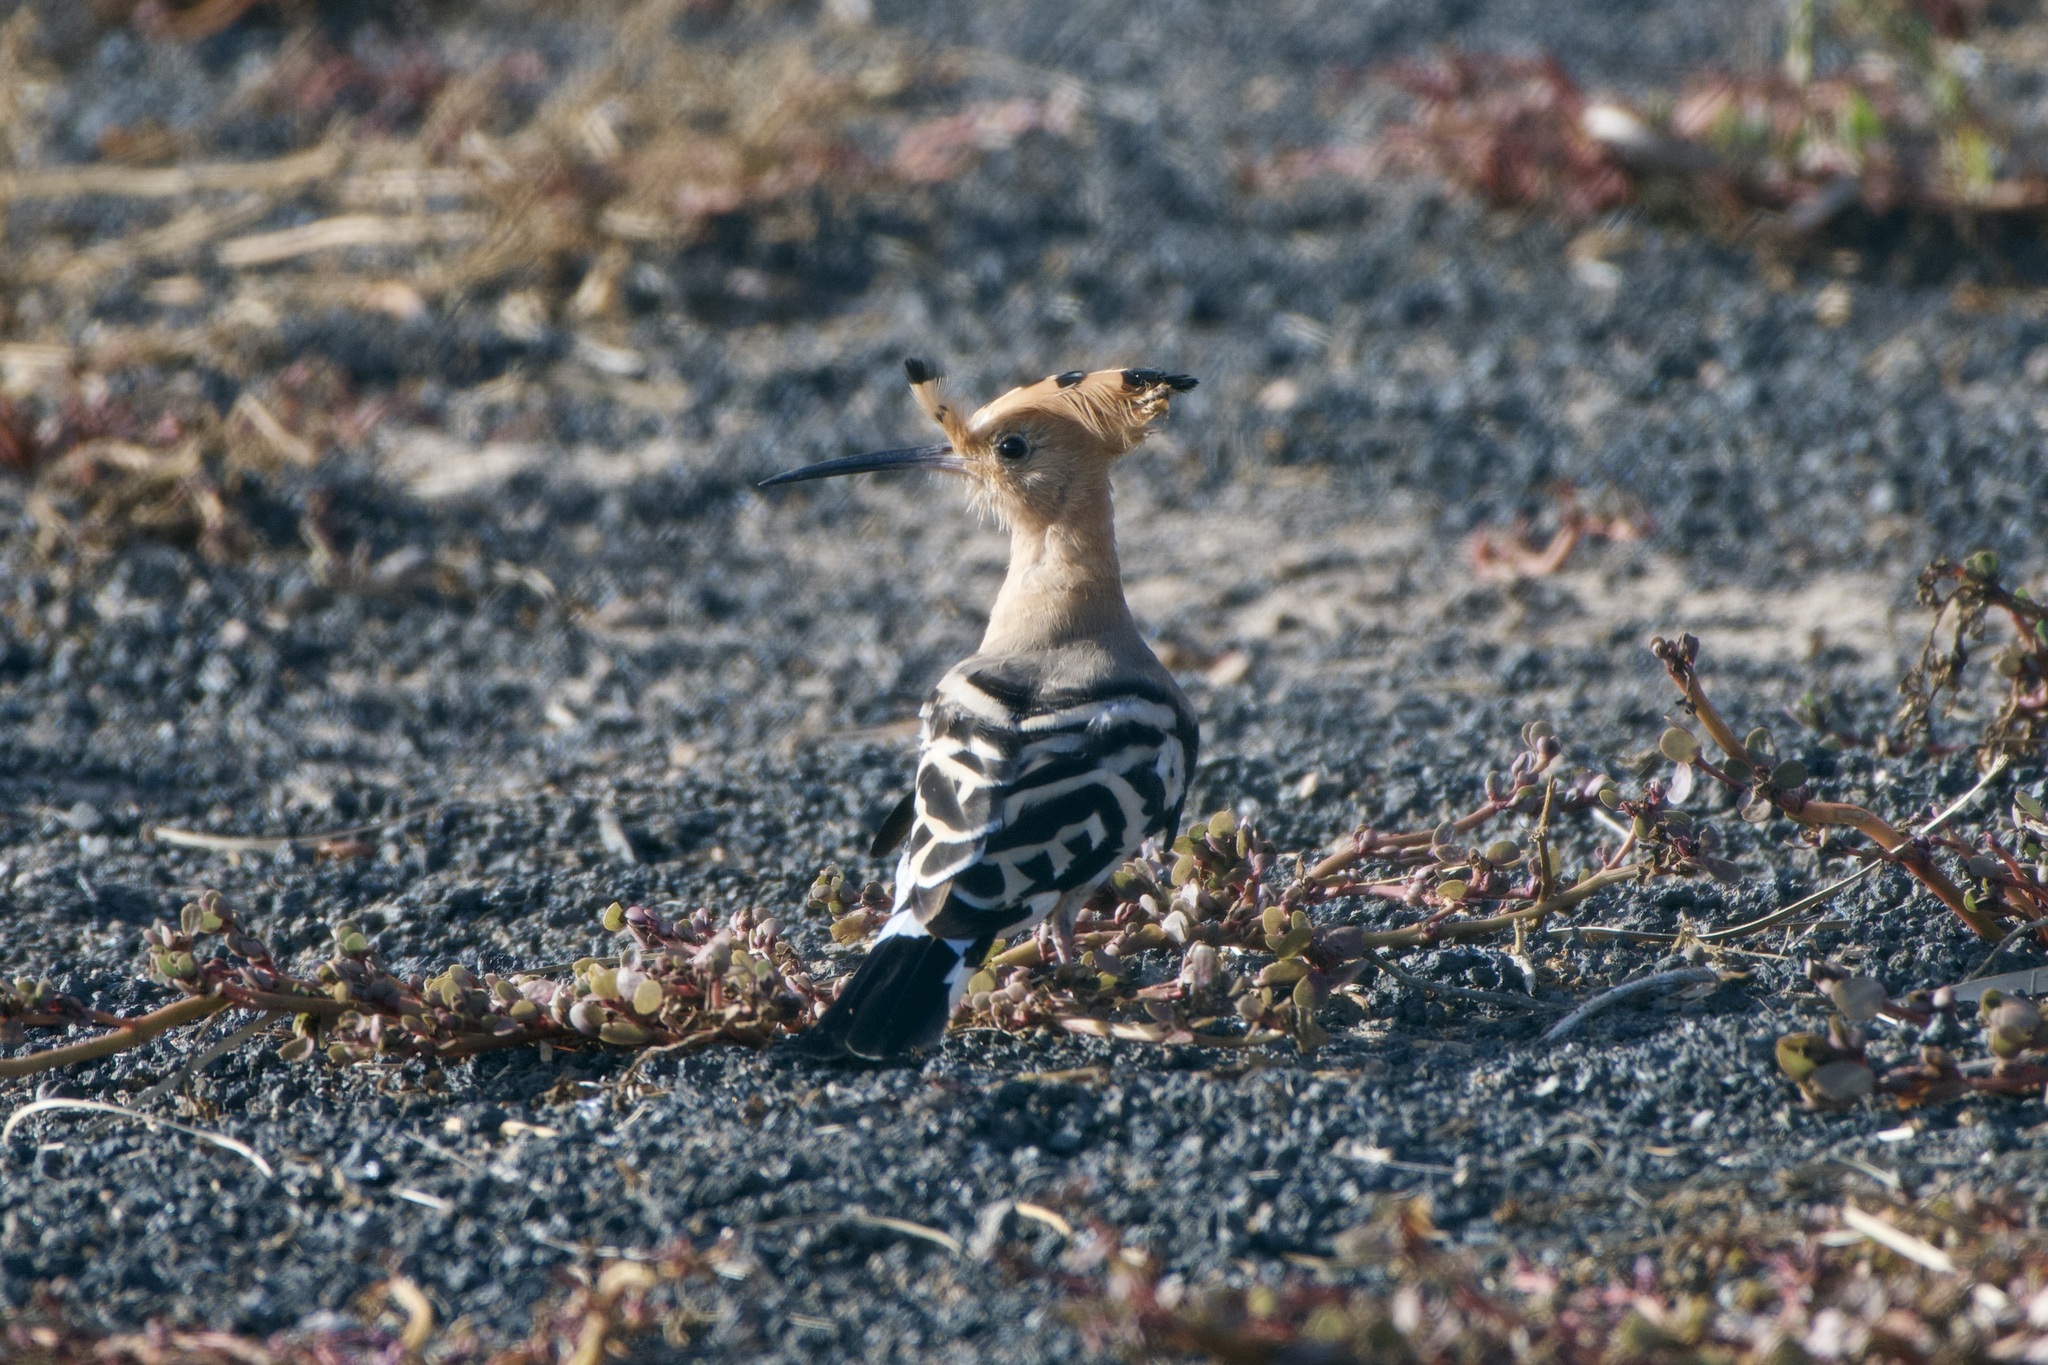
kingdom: Animalia
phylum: Chordata
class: Aves
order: Bucerotiformes
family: Upupidae
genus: Upupa
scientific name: Upupa epops
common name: Eurasian hoopoe
